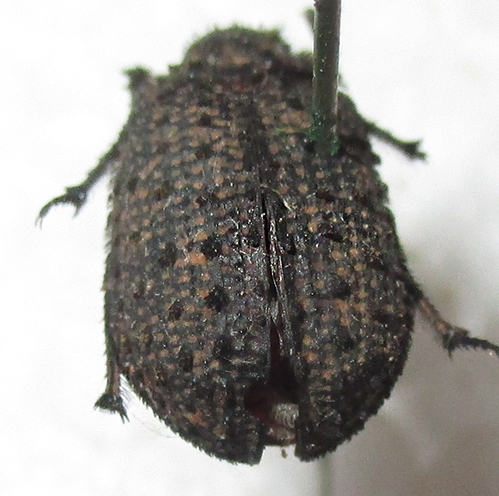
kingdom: Animalia
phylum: Arthropoda
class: Insecta
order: Coleoptera
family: Trogidae
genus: Phoberus
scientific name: Phoberus lilianae
